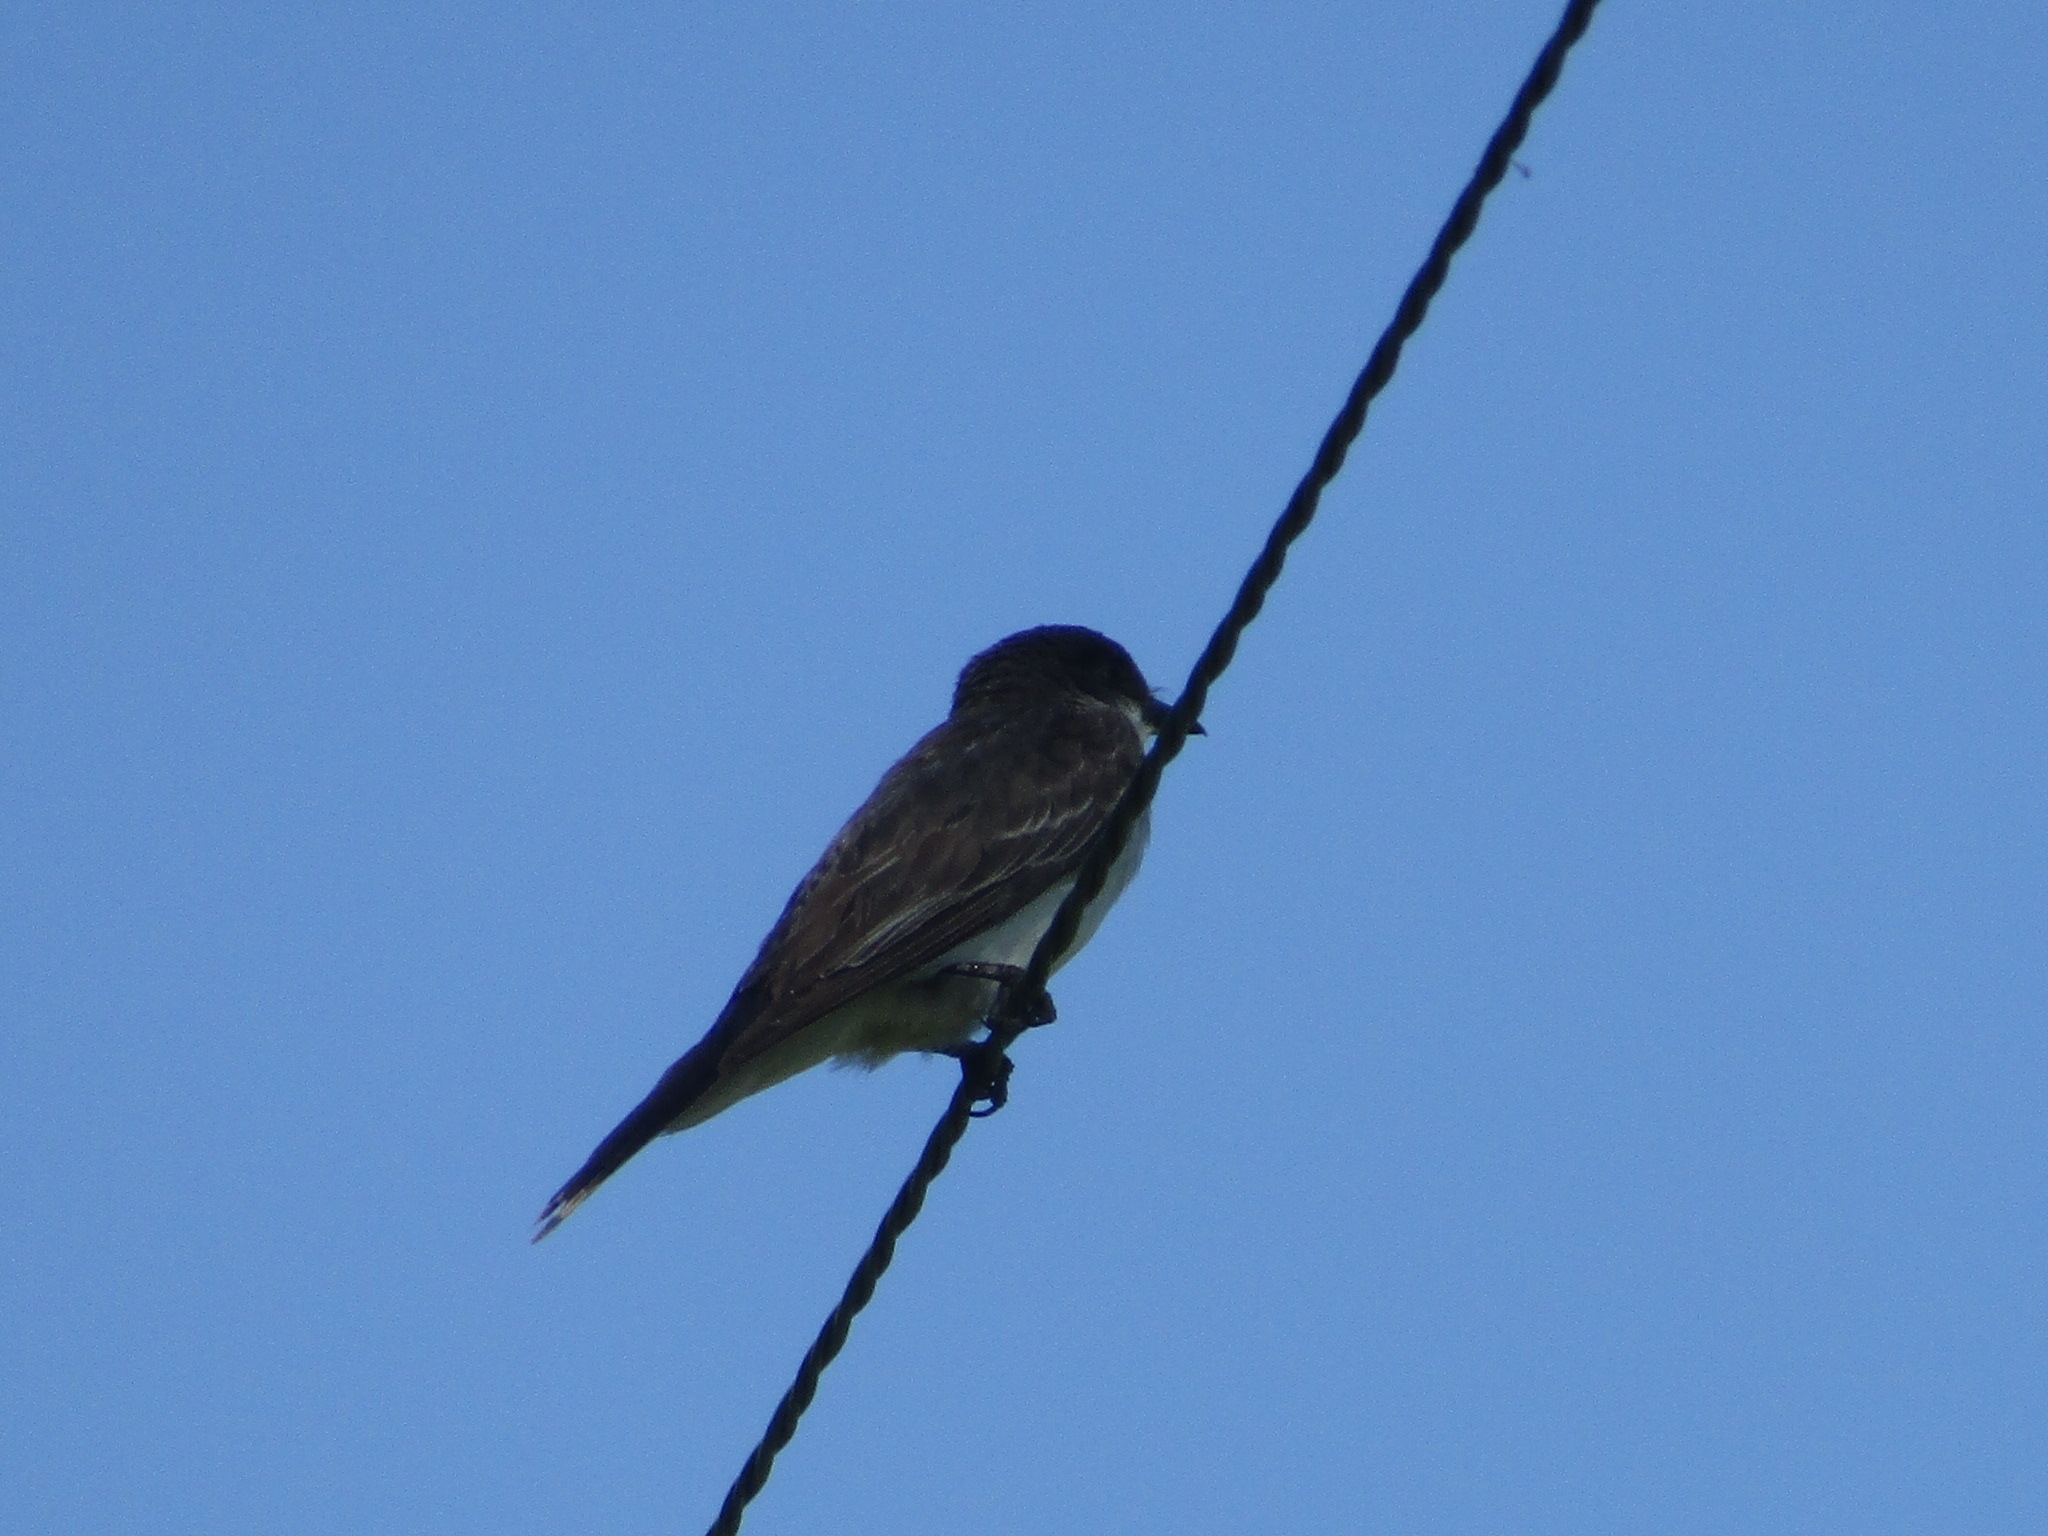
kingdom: Animalia
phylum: Chordata
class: Aves
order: Passeriformes
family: Tyrannidae
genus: Tyrannus
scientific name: Tyrannus tyrannus
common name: Eastern kingbird
